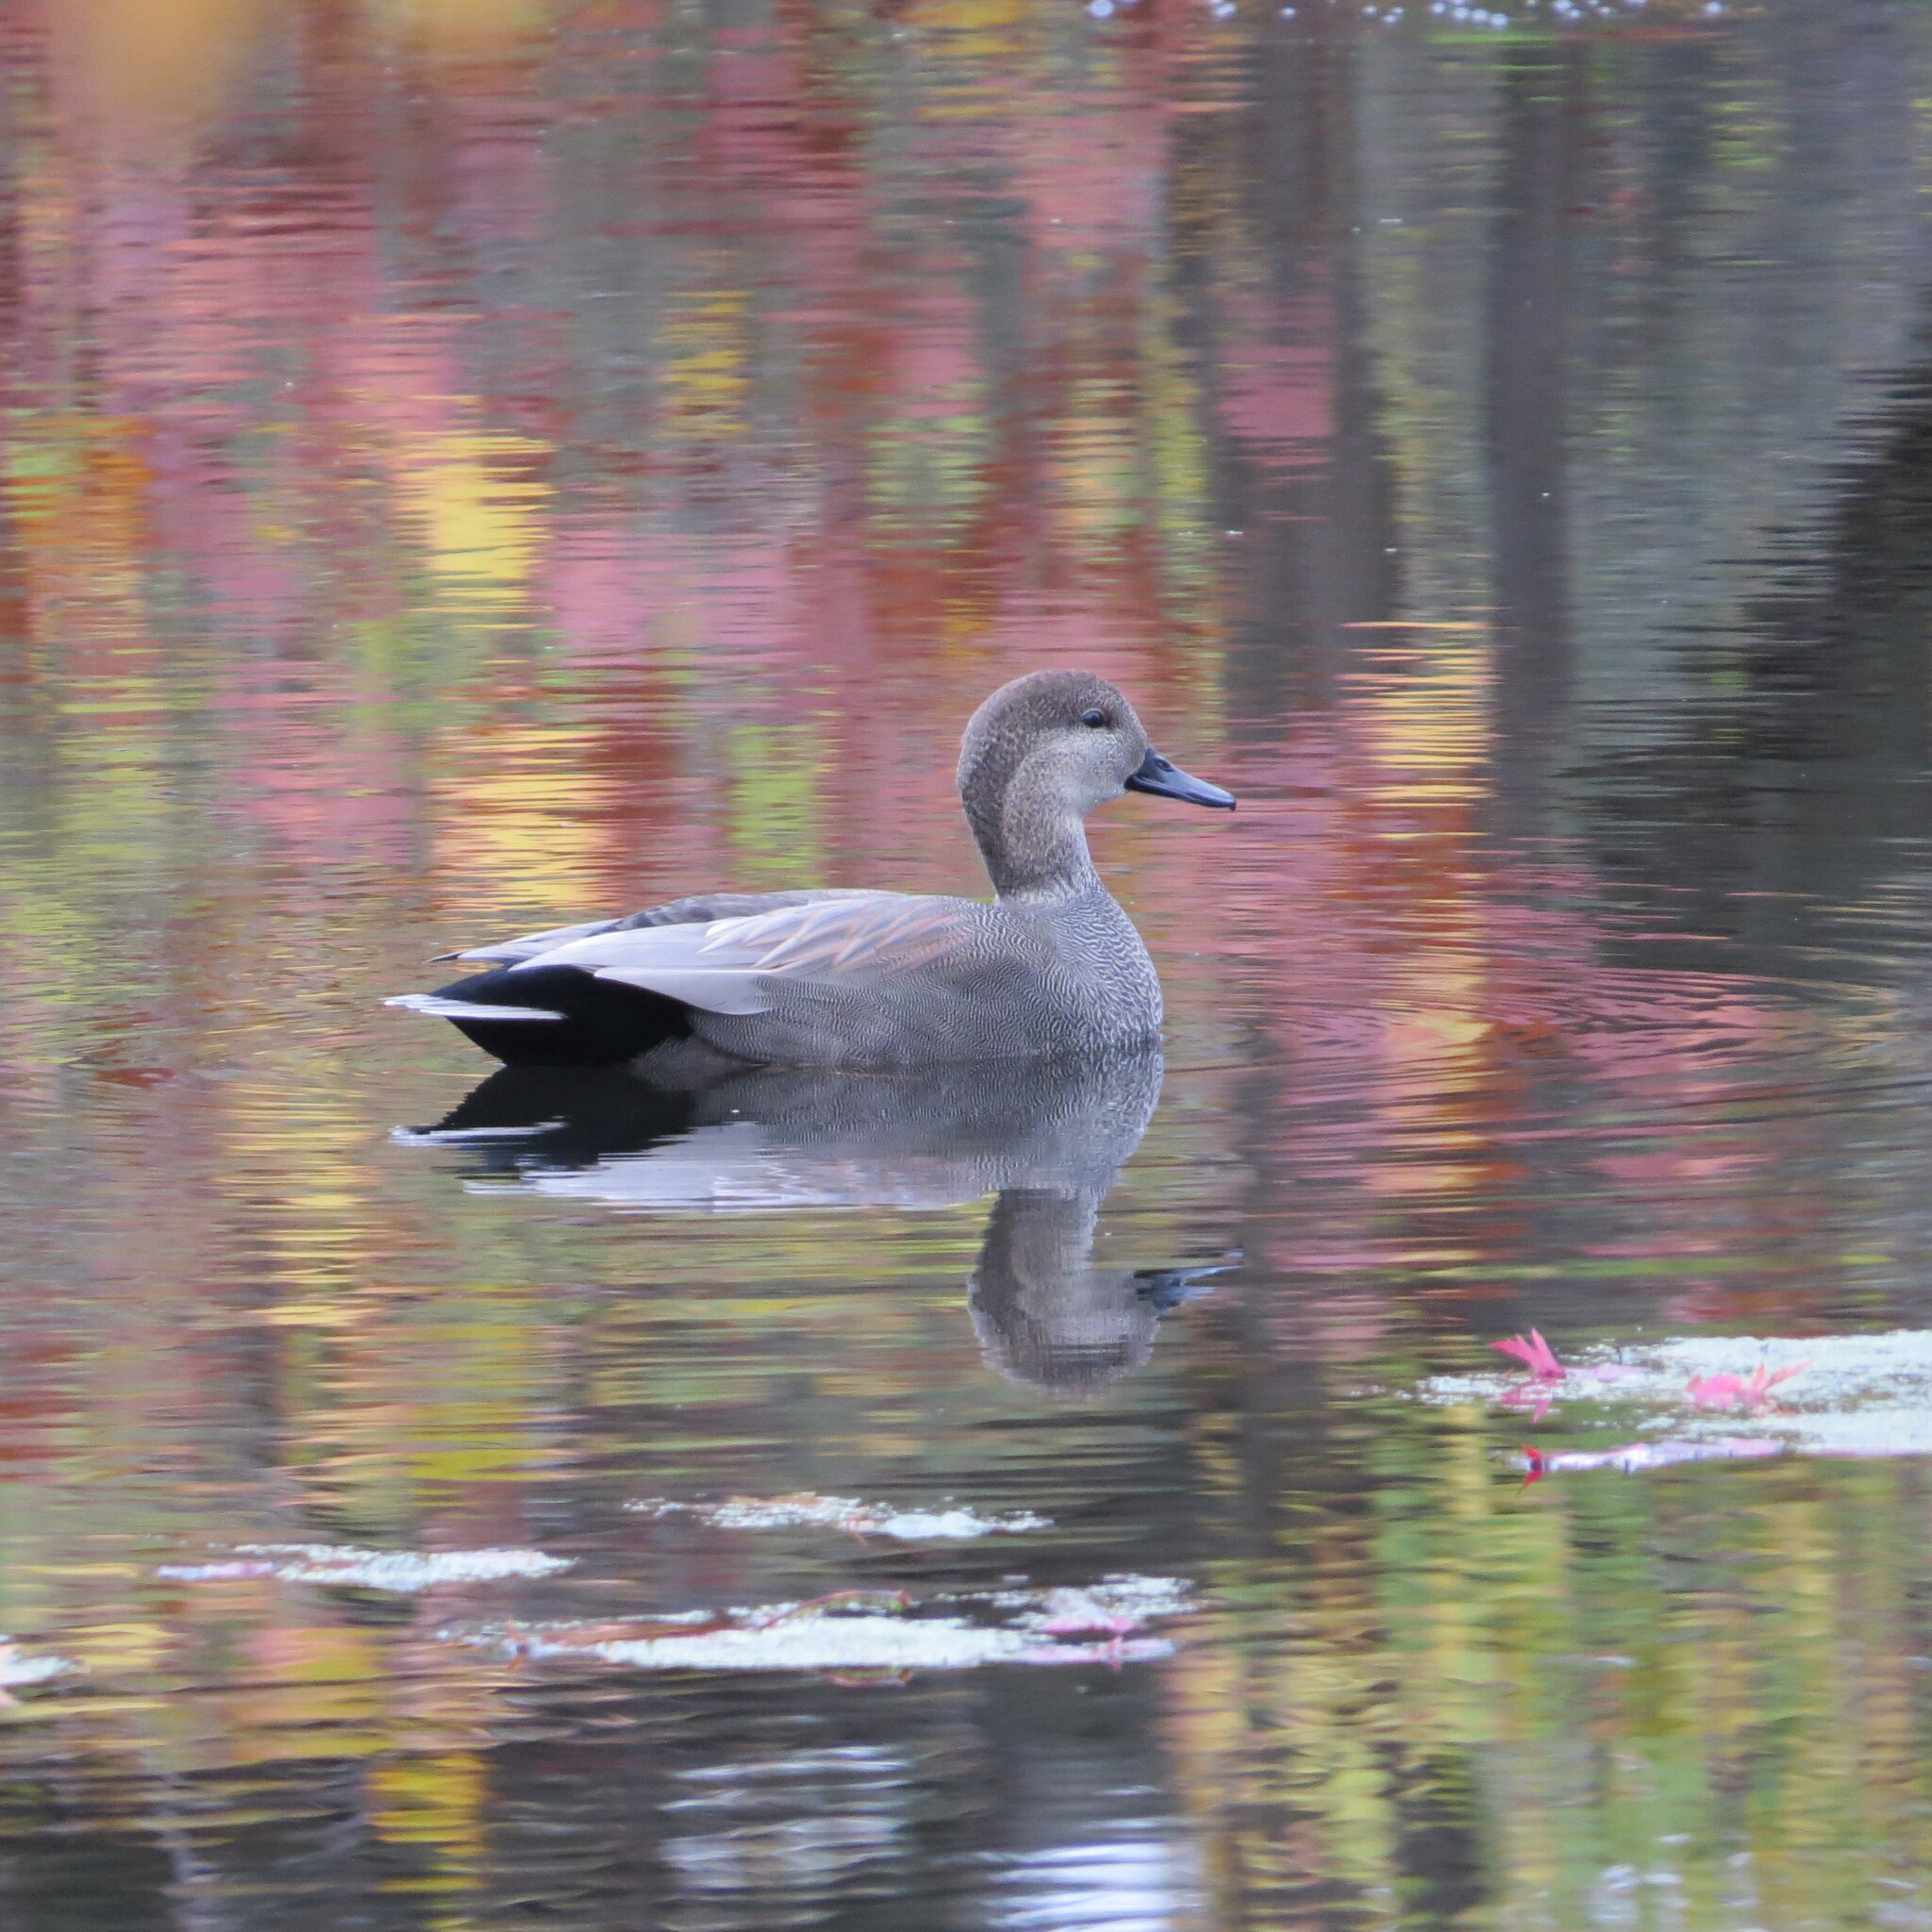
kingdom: Animalia
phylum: Chordata
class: Aves
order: Anseriformes
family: Anatidae
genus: Mareca
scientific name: Mareca strepera
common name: Gadwall
